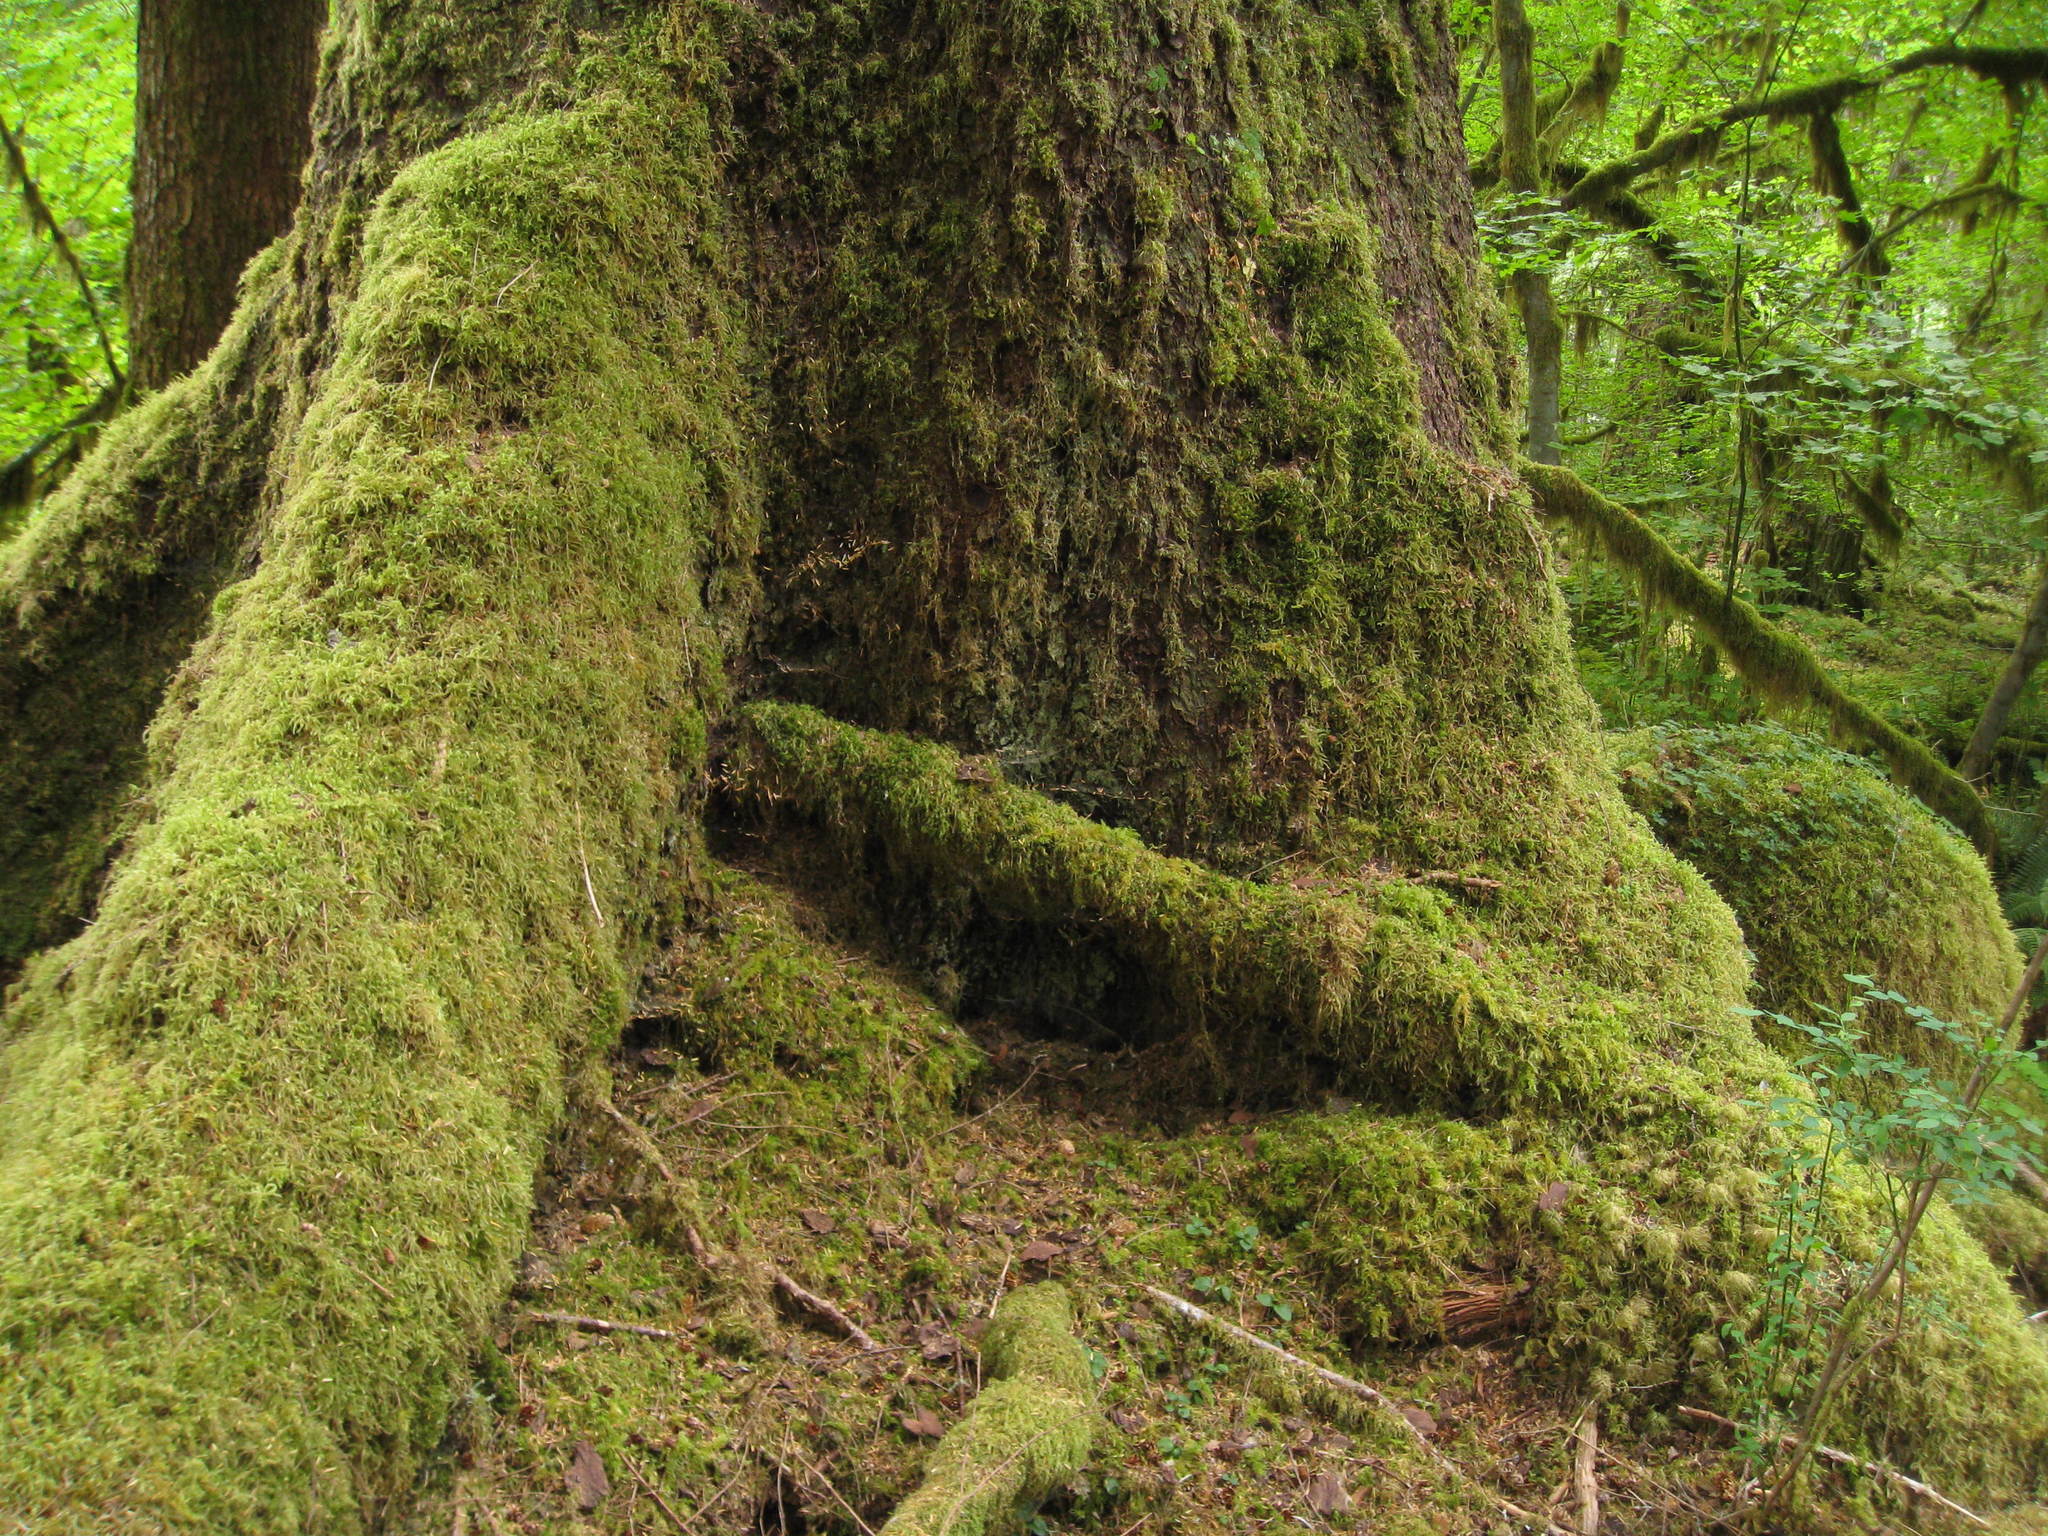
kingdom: Plantae
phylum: Tracheophyta
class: Pinopsida
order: Pinales
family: Pinaceae
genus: Picea
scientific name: Picea sitchensis
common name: Sitka spruce
